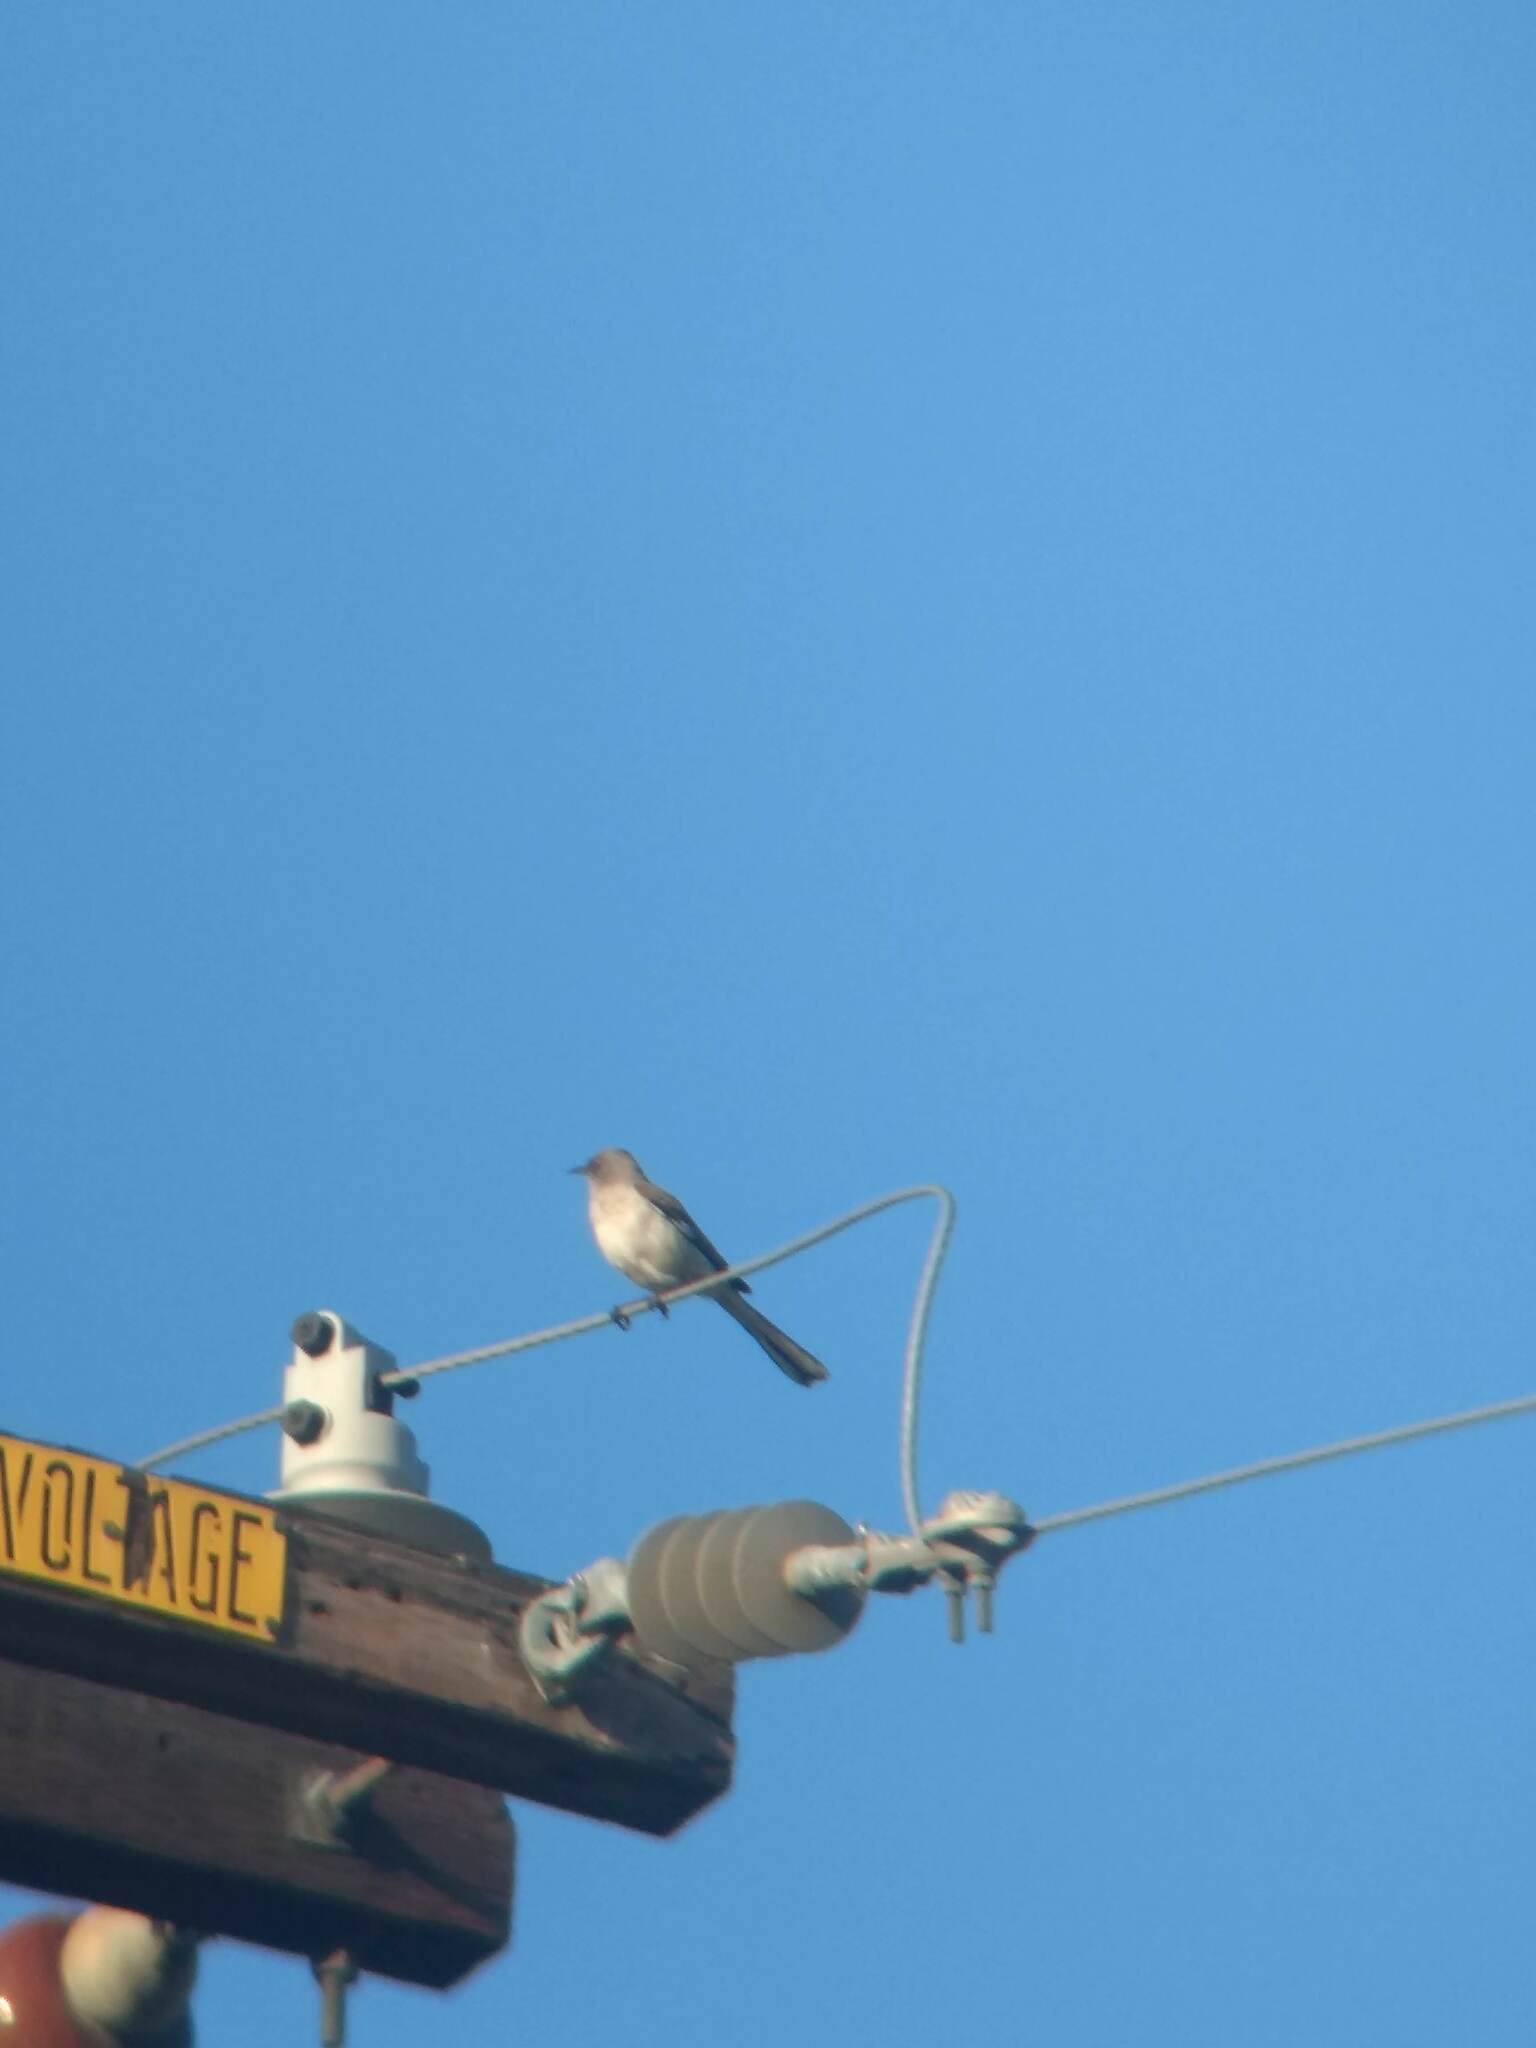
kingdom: Animalia
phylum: Chordata
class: Aves
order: Passeriformes
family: Mimidae
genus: Mimus
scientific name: Mimus polyglottos
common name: Northern mockingbird
